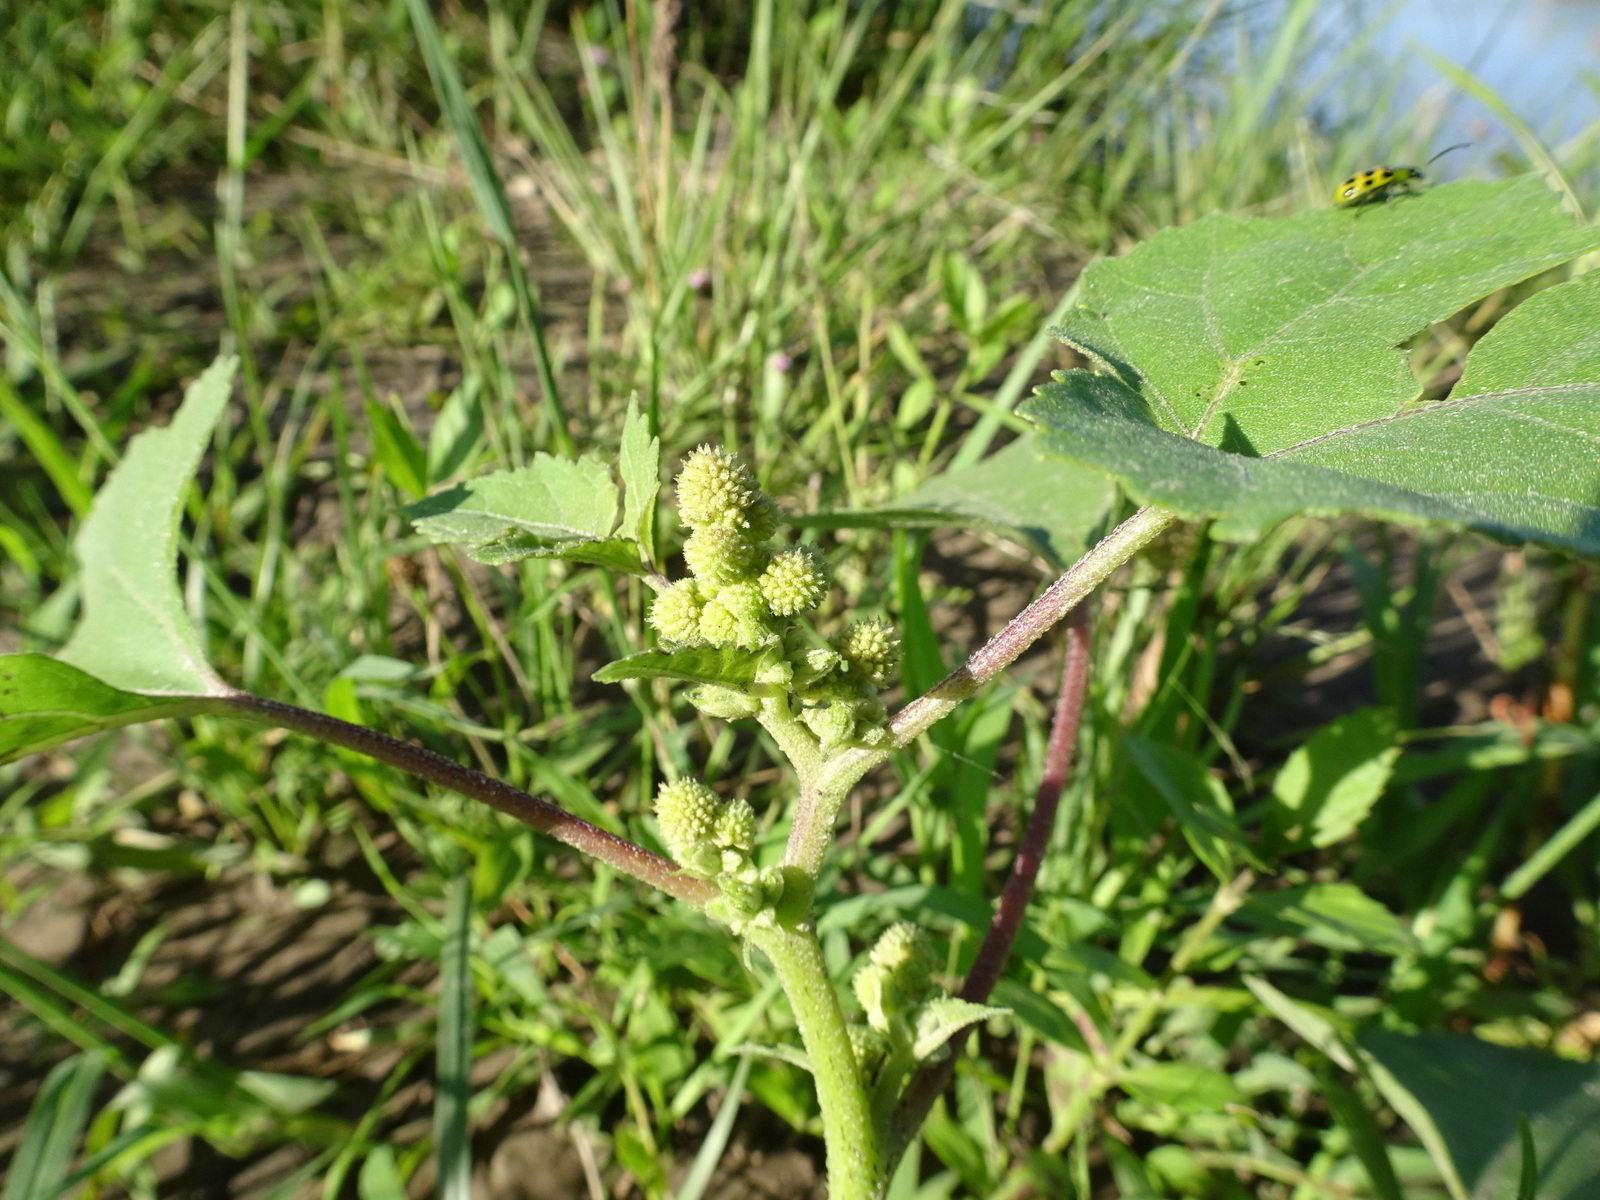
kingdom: Plantae
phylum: Tracheophyta
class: Magnoliopsida
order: Asterales
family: Asteraceae
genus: Xanthium
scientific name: Xanthium strumarium
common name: Rough cocklebur
